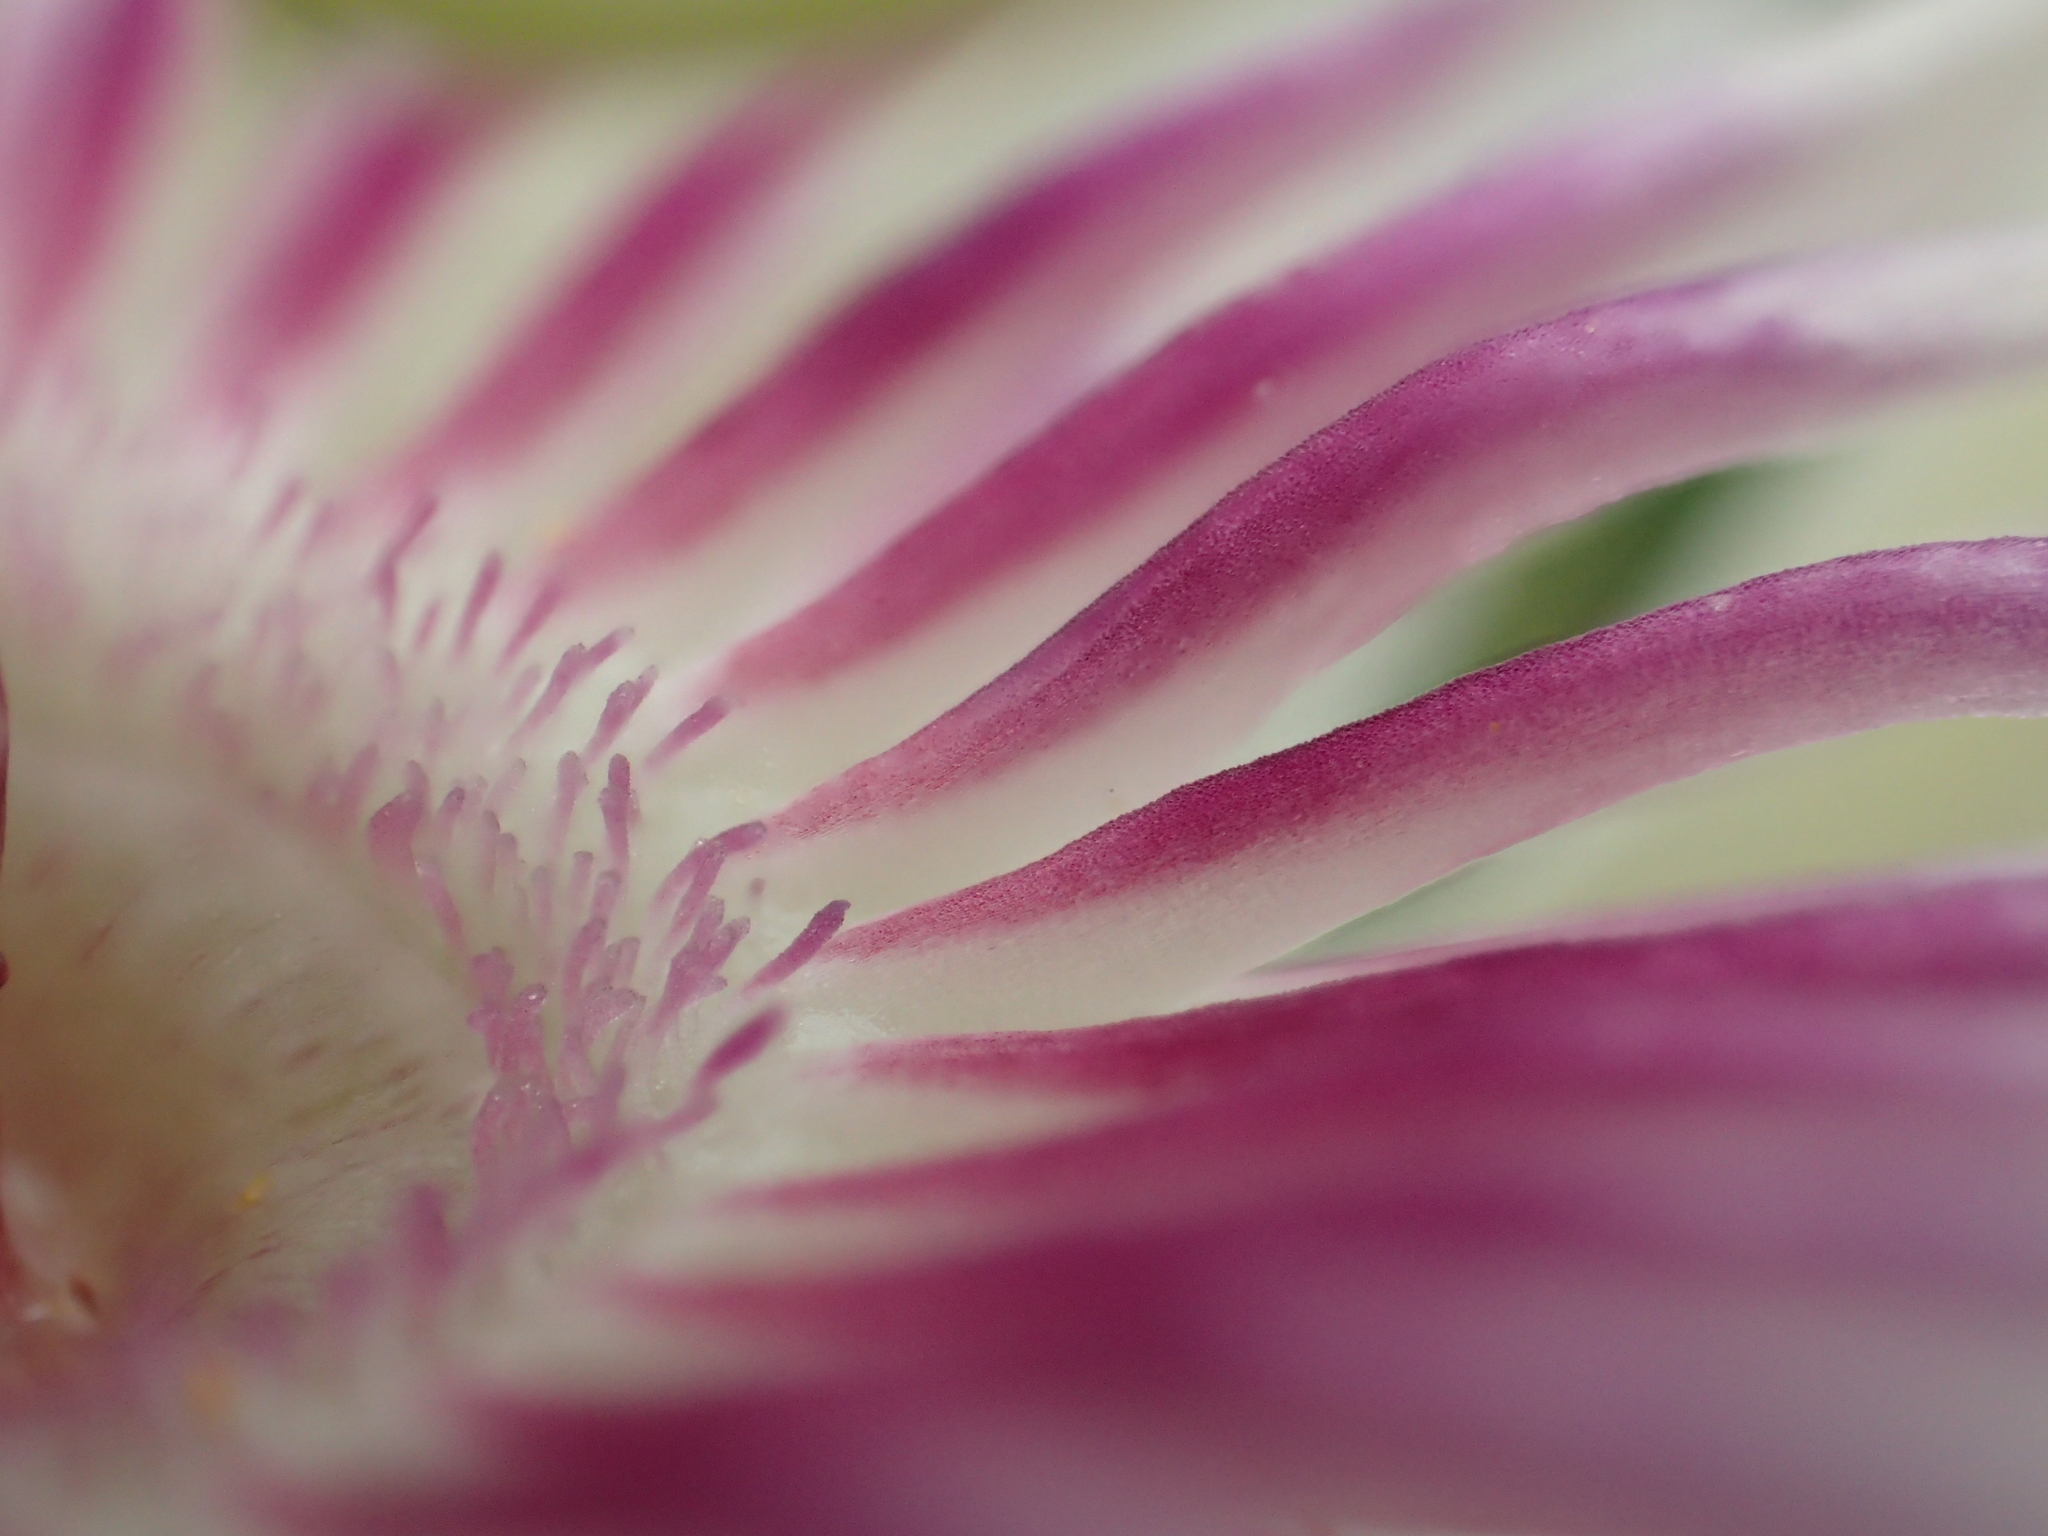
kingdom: Plantae
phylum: Tracheophyta
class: Magnoliopsida
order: Malpighiales
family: Passifloraceae
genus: Passiflora
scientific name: Passiflora vesicaria
